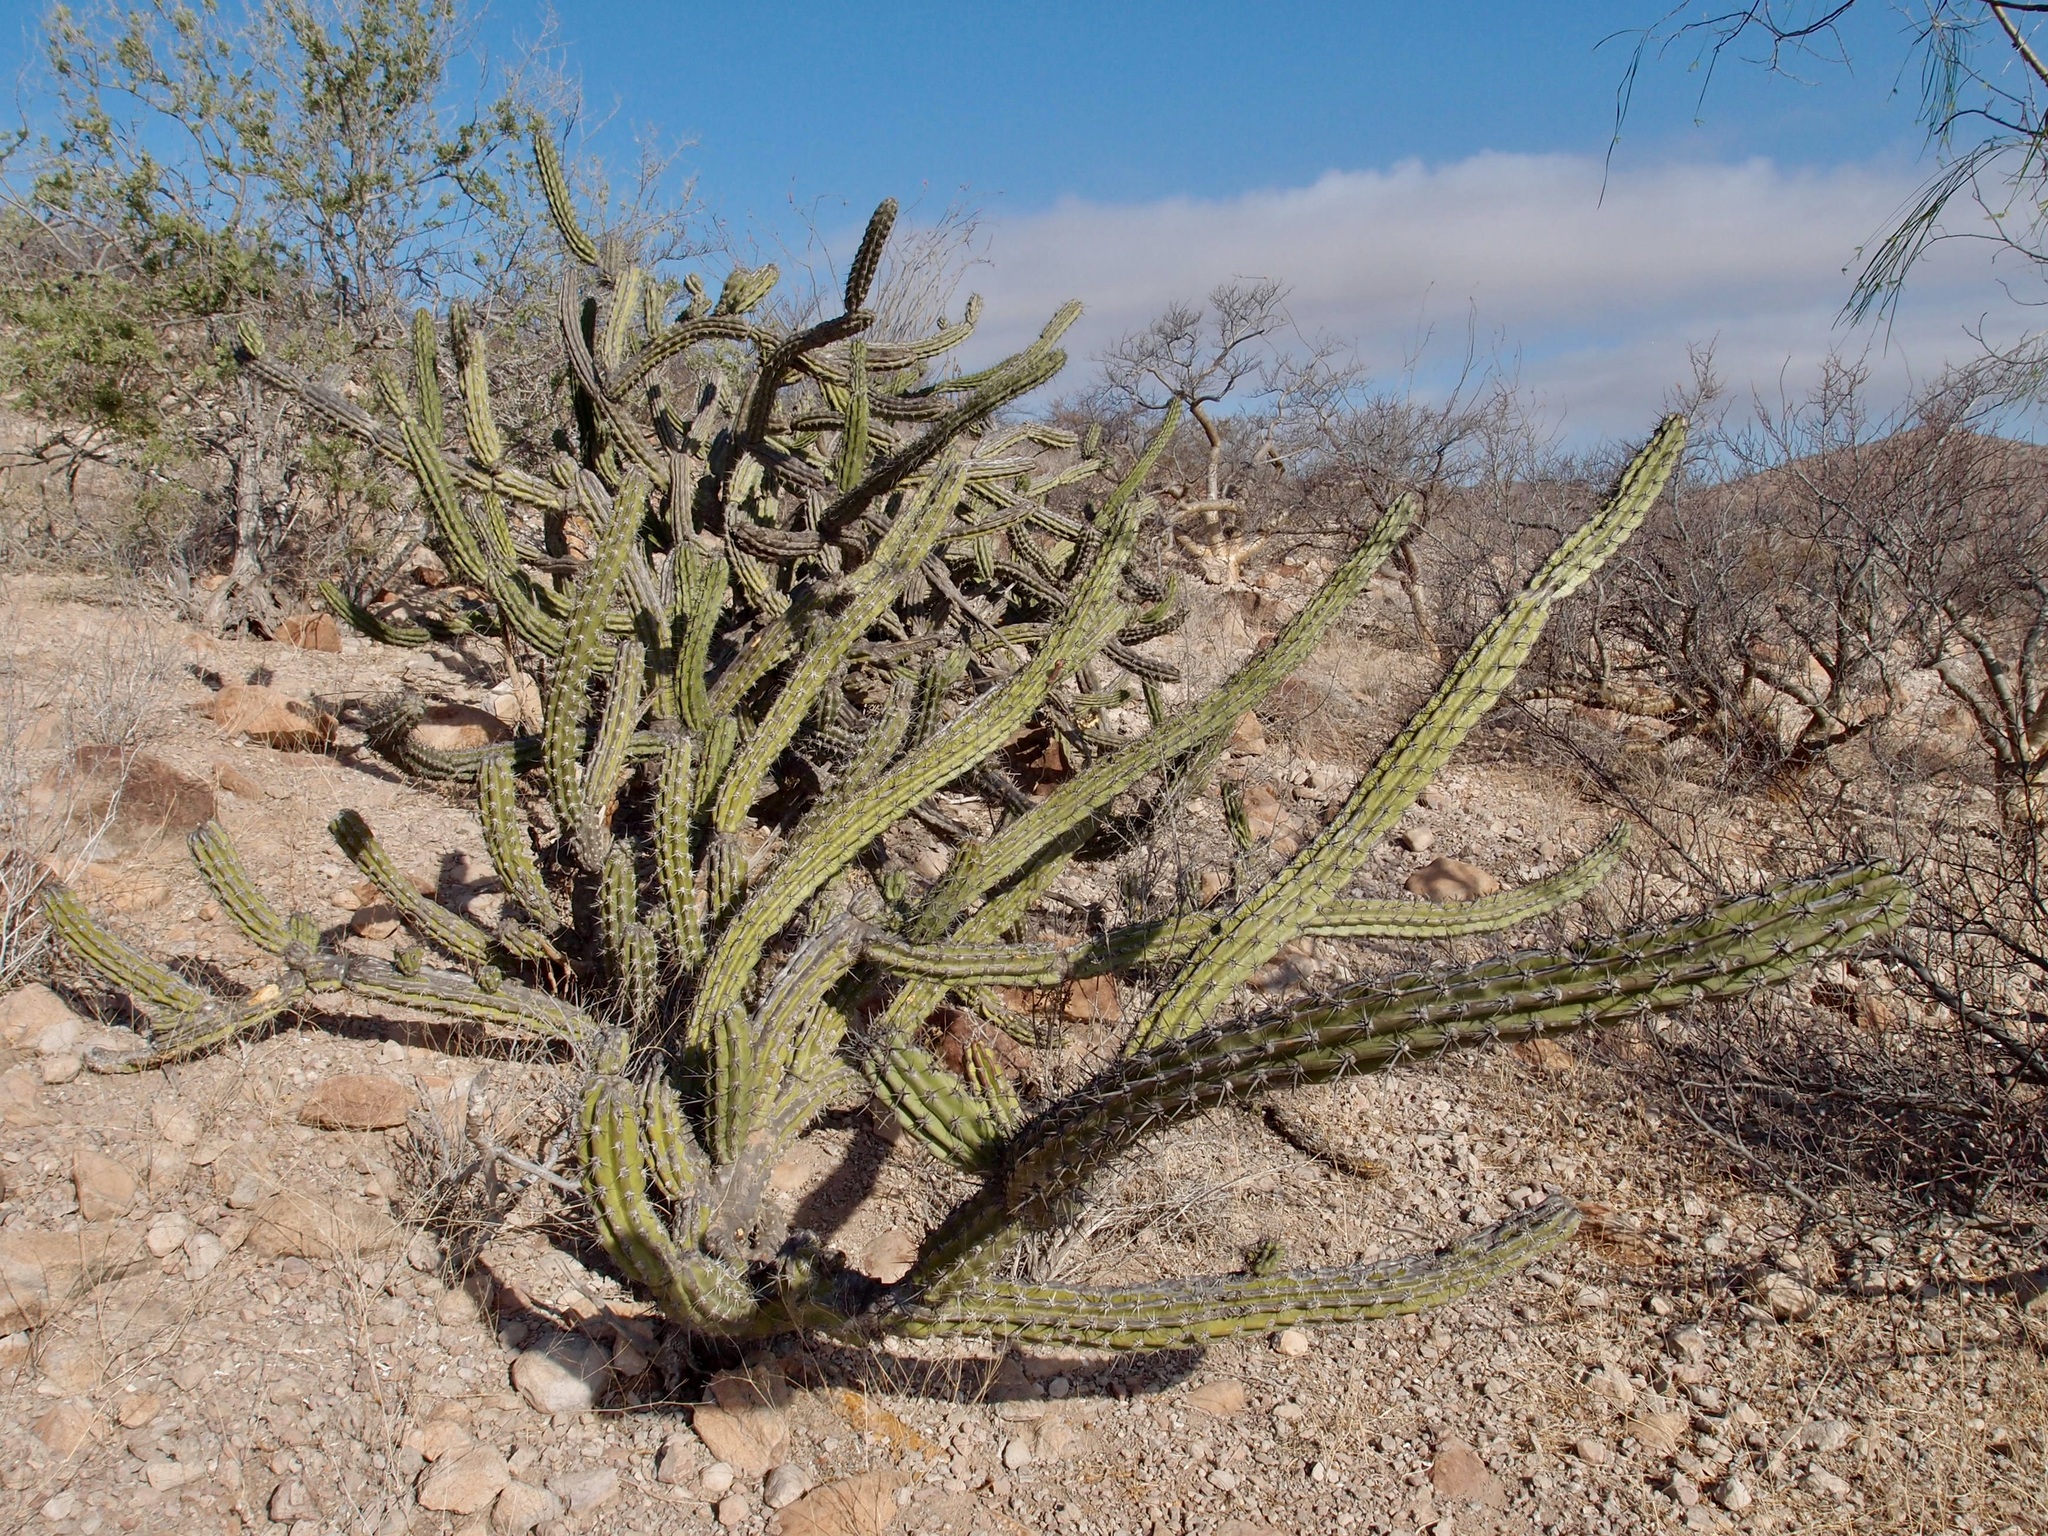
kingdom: Plantae
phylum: Tracheophyta
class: Magnoliopsida
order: Caryophyllales
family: Cactaceae
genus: Stenocereus
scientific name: Stenocereus gummosus
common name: Dagger cactus
